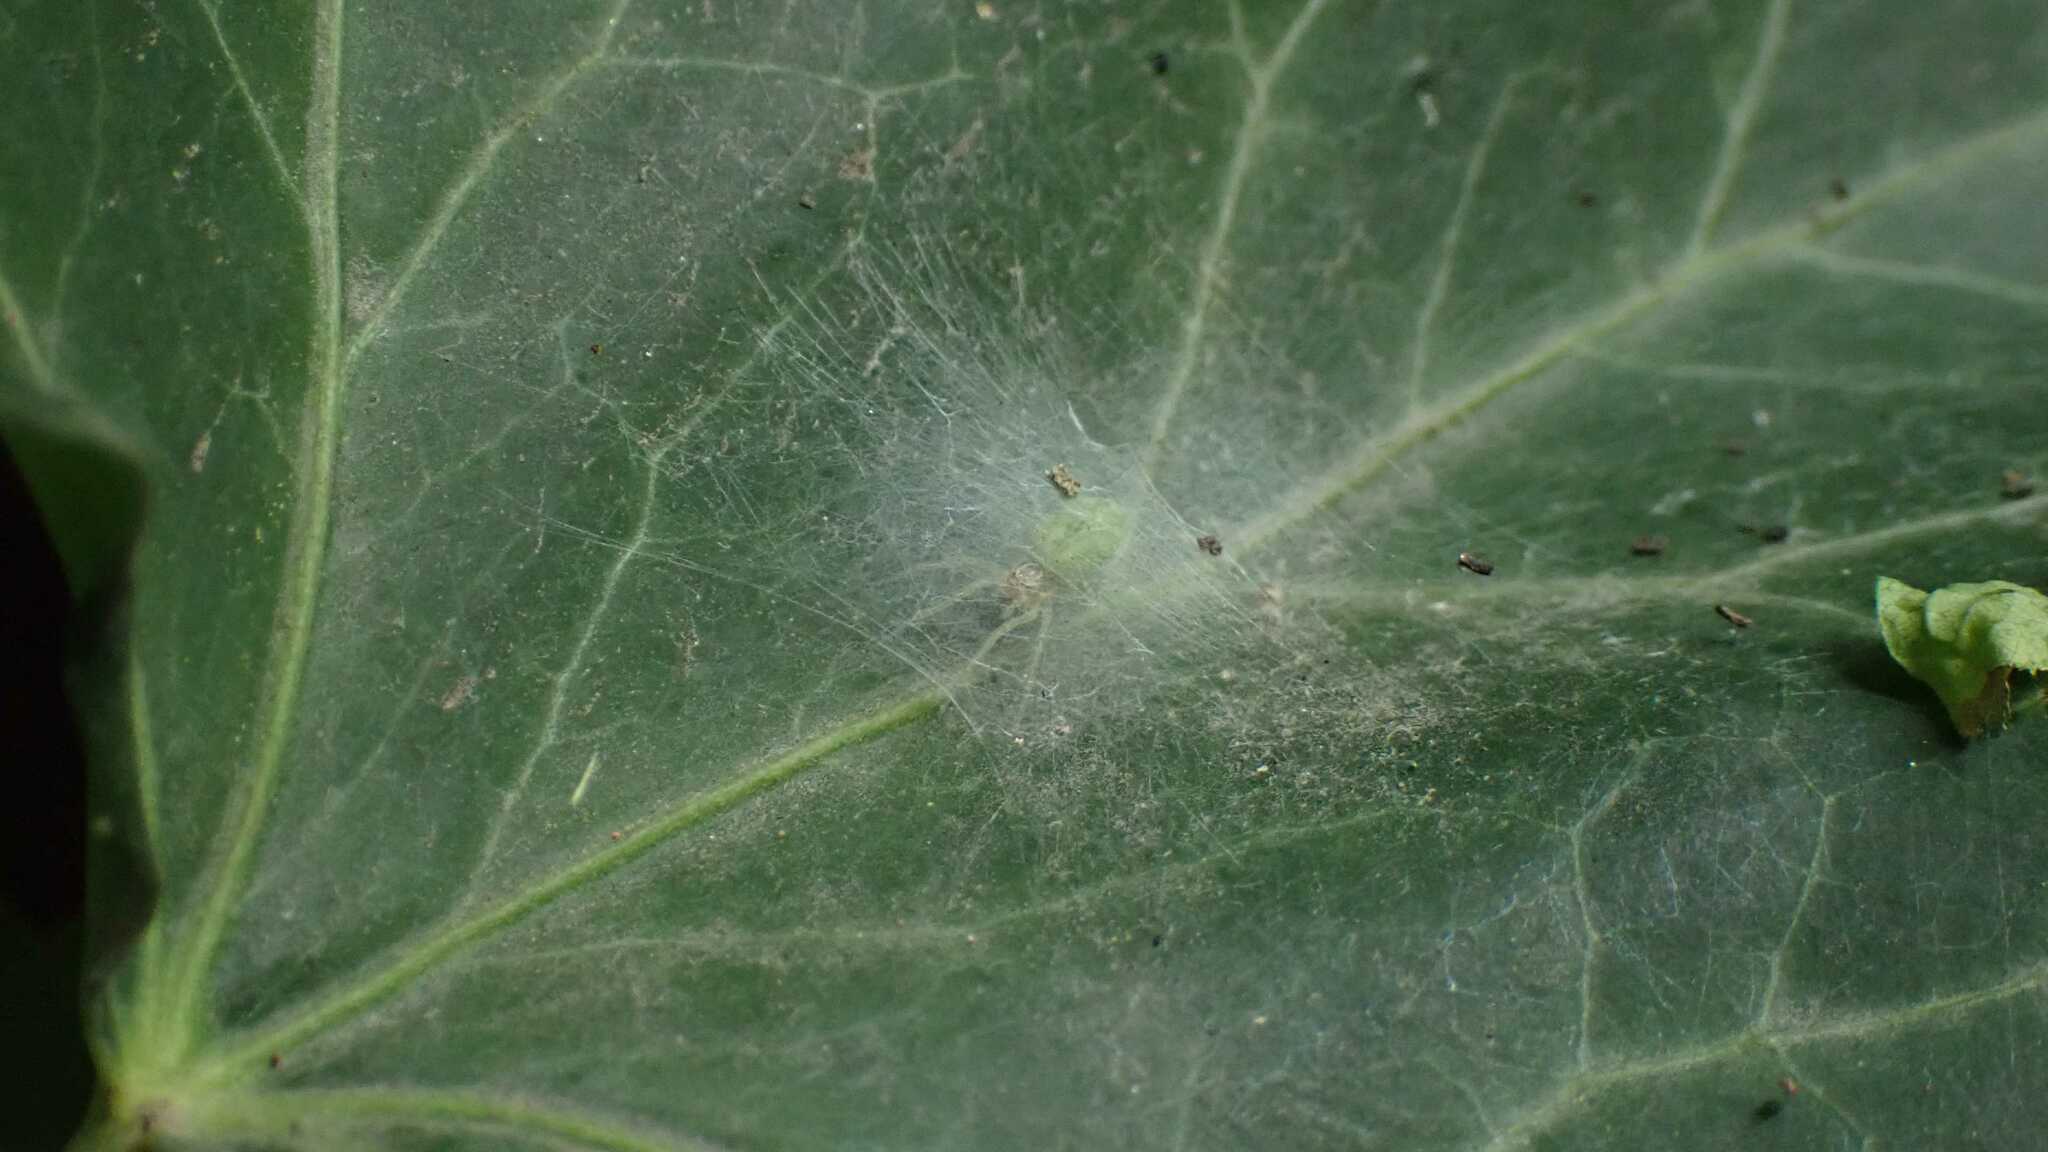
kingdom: Animalia
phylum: Arthropoda
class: Arachnida
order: Araneae
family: Dictynidae
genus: Nigma
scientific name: Nigma walckenaeri
